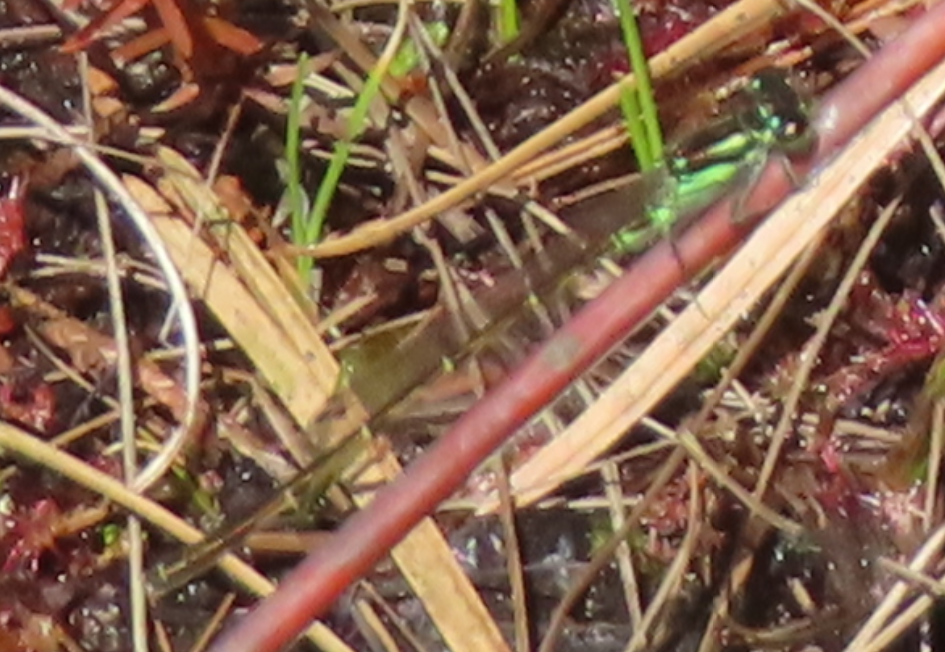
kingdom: Animalia
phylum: Arthropoda
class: Insecta
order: Odonata
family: Coenagrionidae
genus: Ischnura
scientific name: Ischnura posita
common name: Fragile forktail
